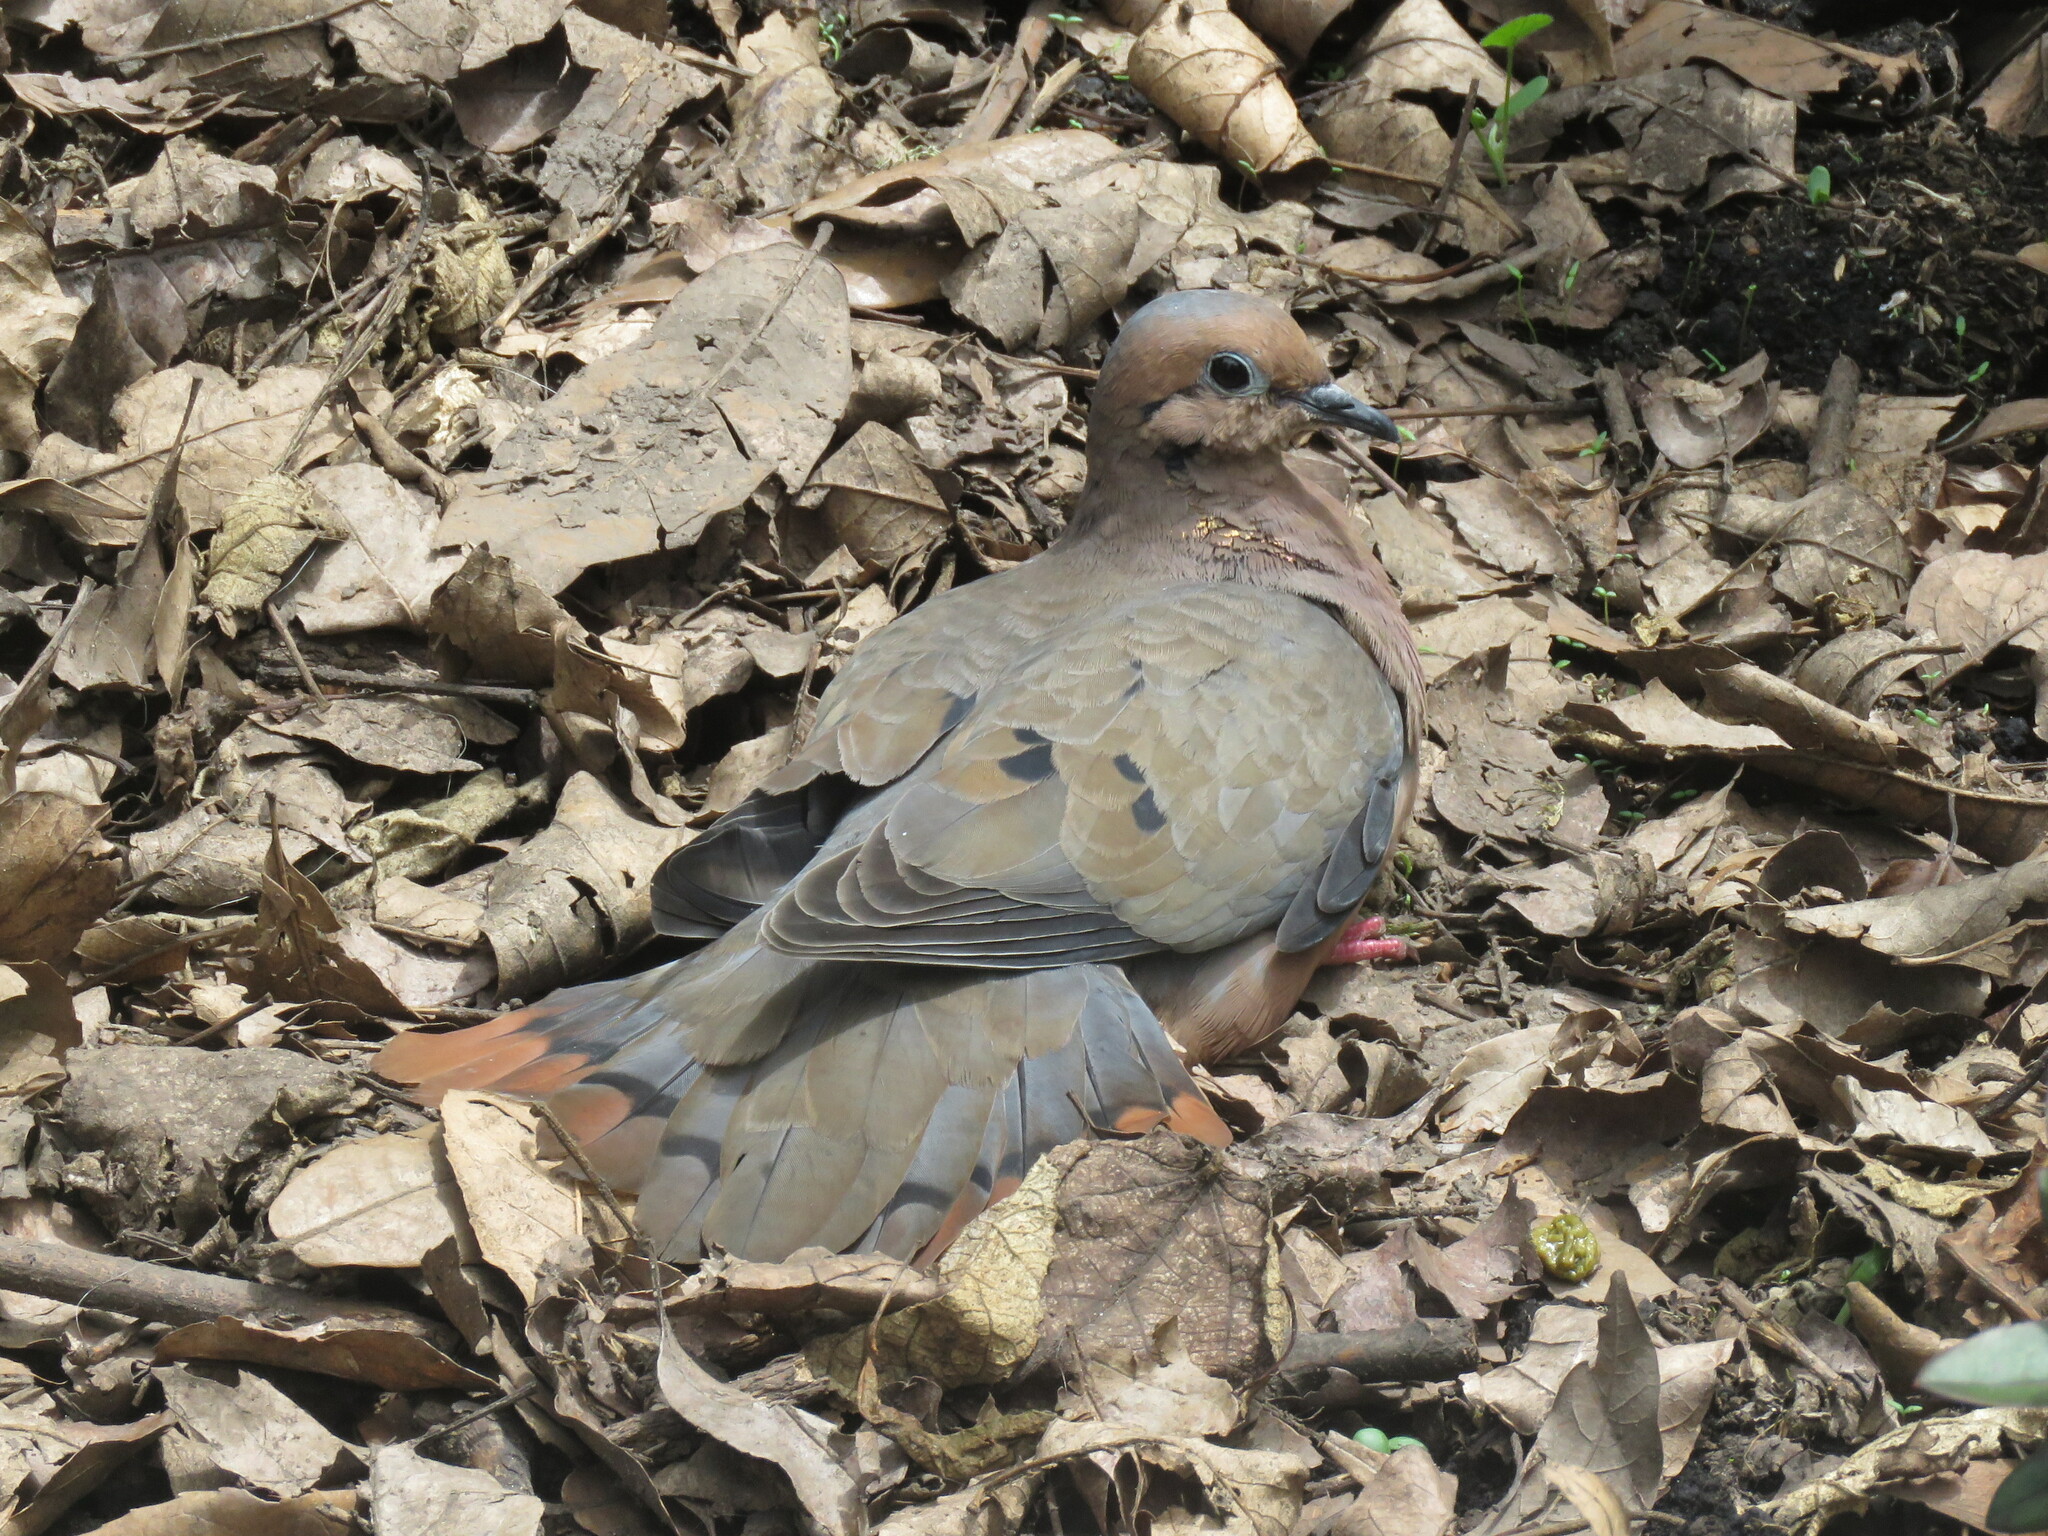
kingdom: Animalia
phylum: Chordata
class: Aves
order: Columbiformes
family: Columbidae
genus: Zenaida
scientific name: Zenaida auriculata
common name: Eared dove
